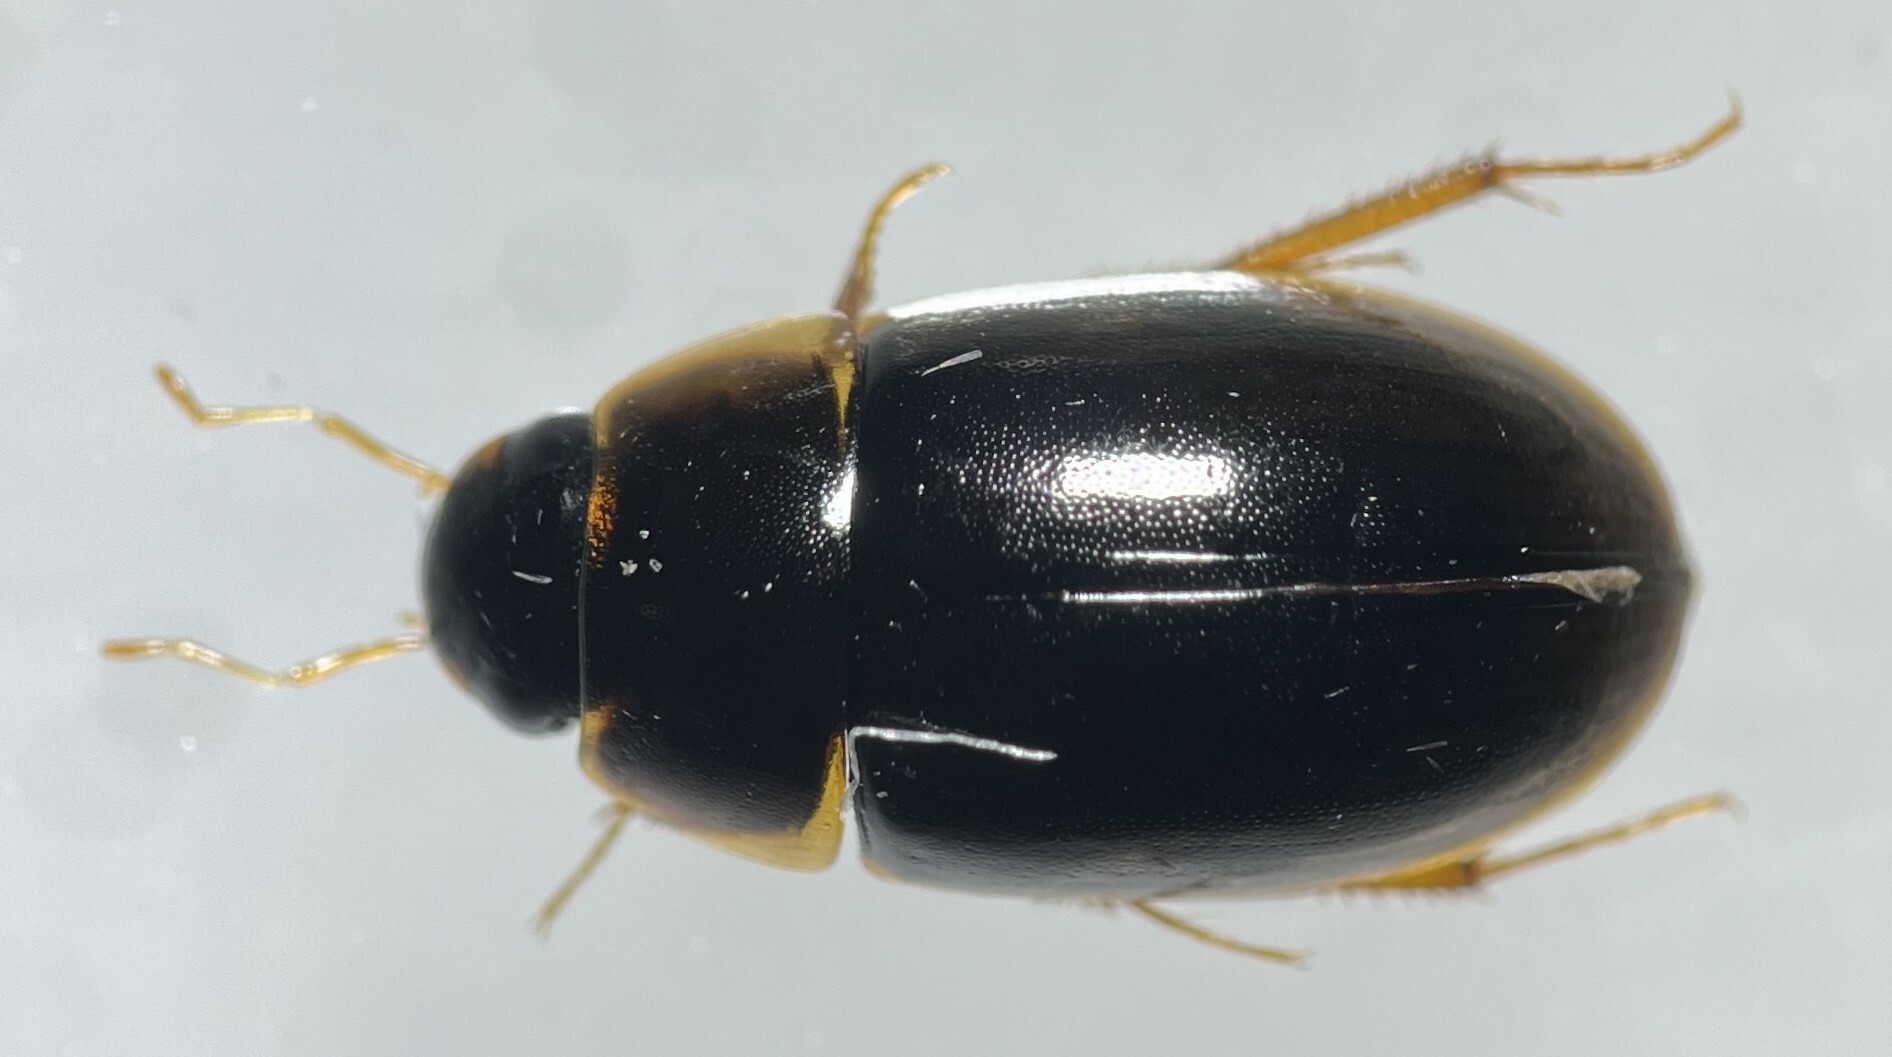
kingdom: Animalia
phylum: Arthropoda
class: Insecta
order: Coleoptera
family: Hydrophilidae
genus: Enochrus
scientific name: Enochrus grossi
